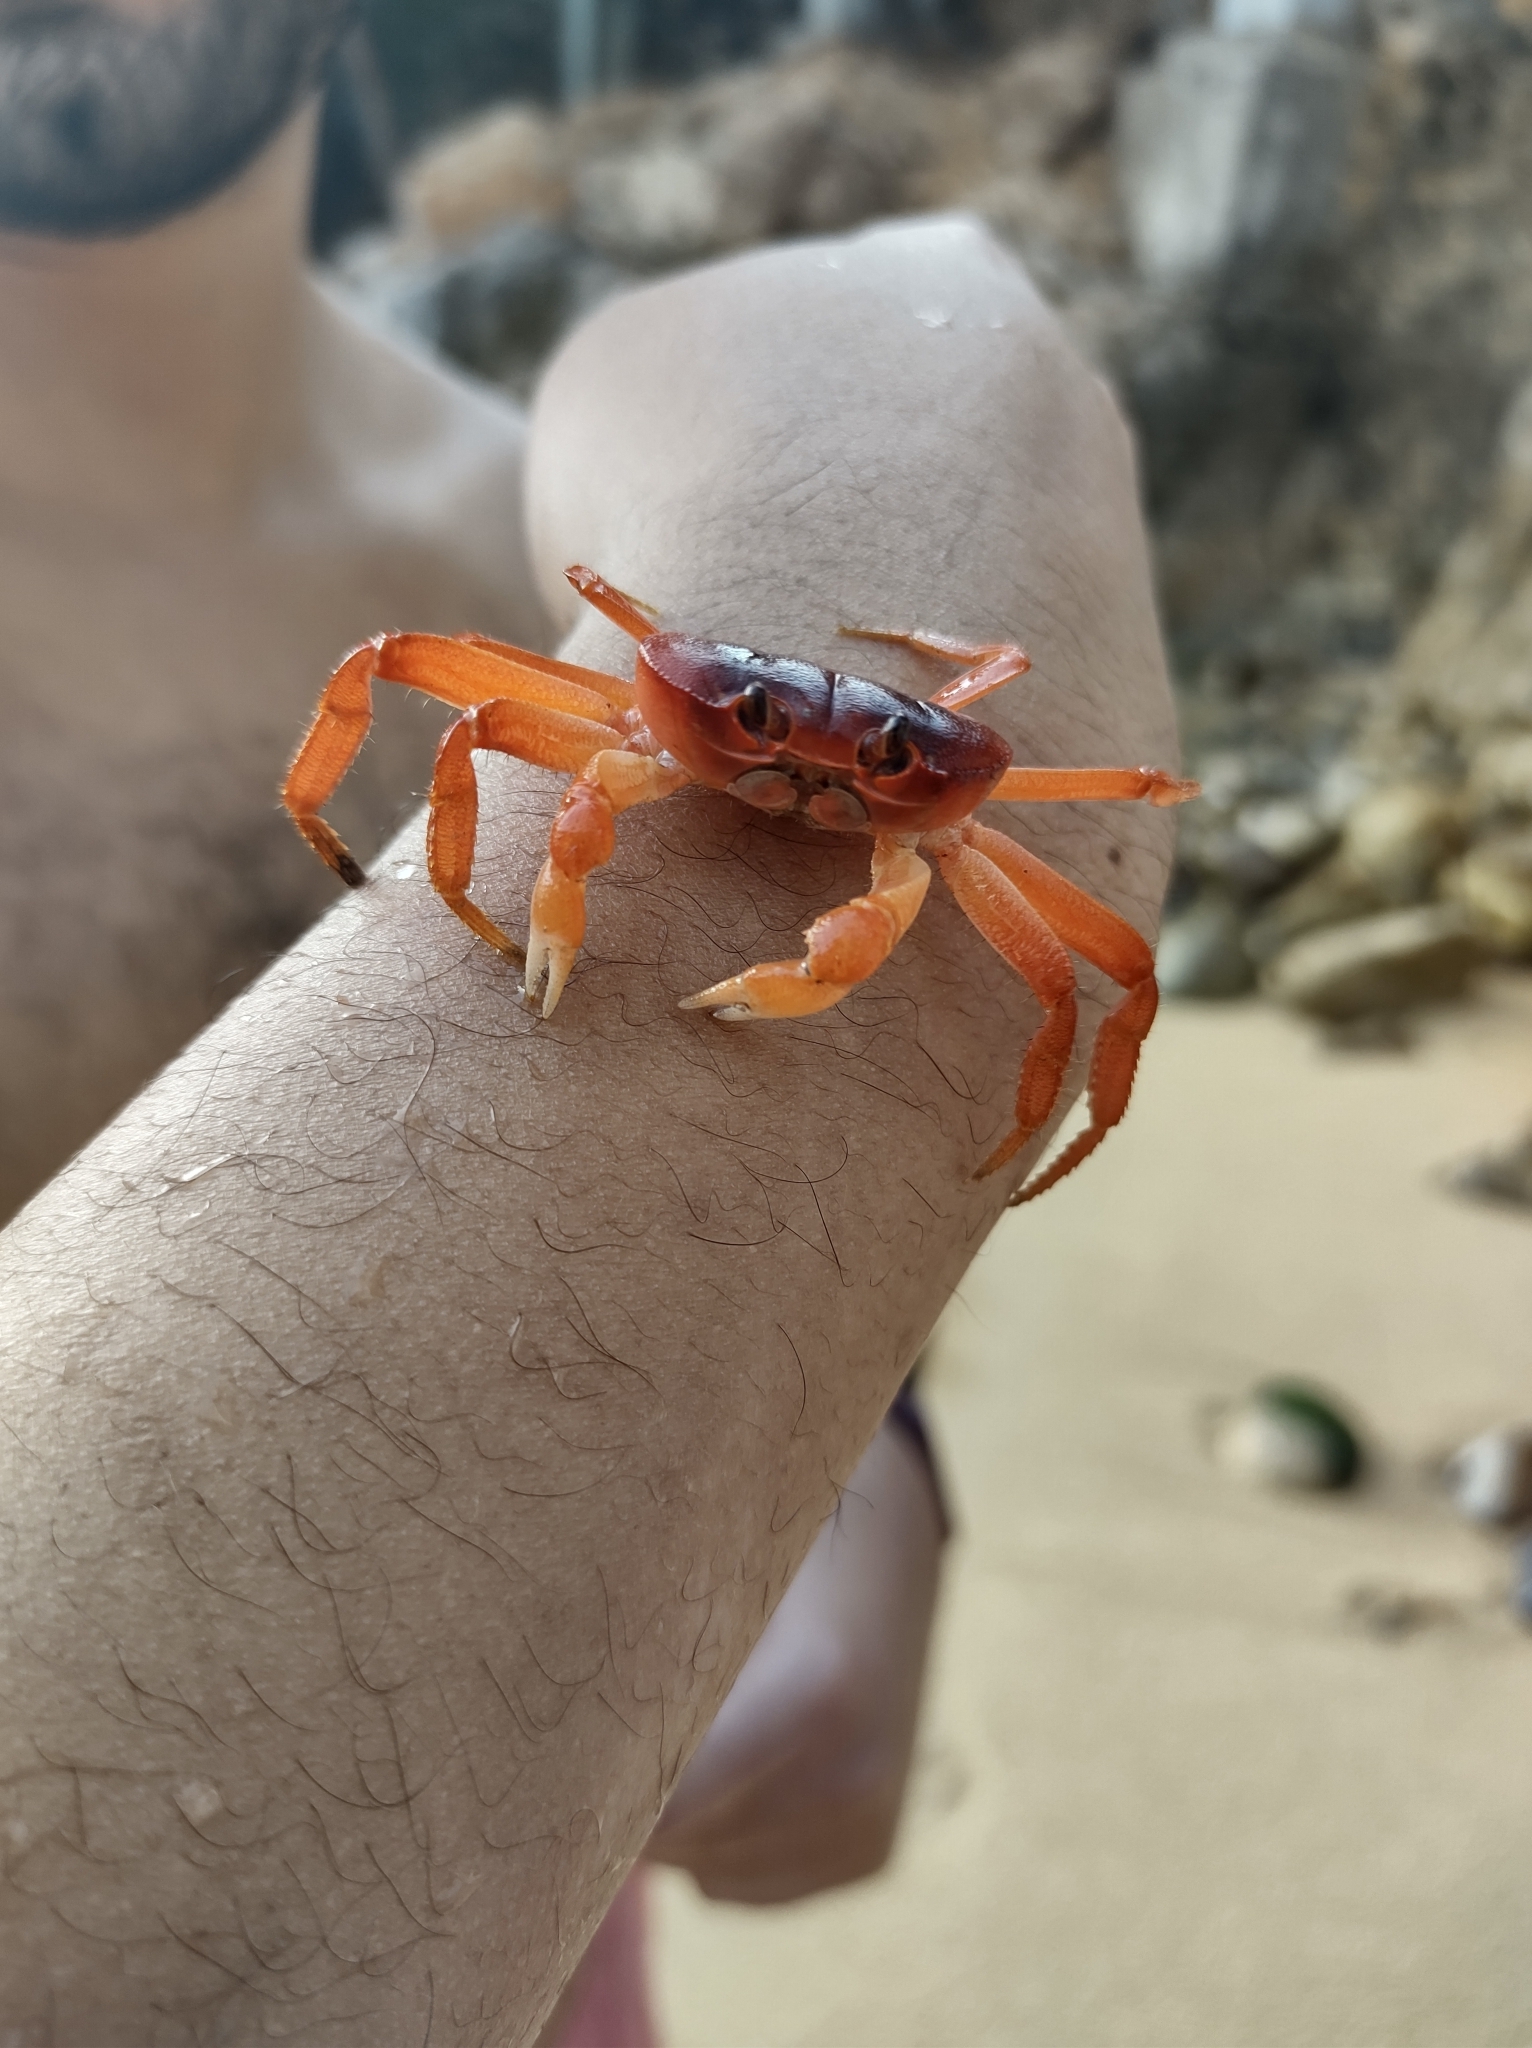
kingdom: Animalia
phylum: Arthropoda
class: Malacostraca
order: Decapoda
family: Gecarcinidae
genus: Gecarcinus
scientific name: Gecarcinus quadratus
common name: Halloween crab
